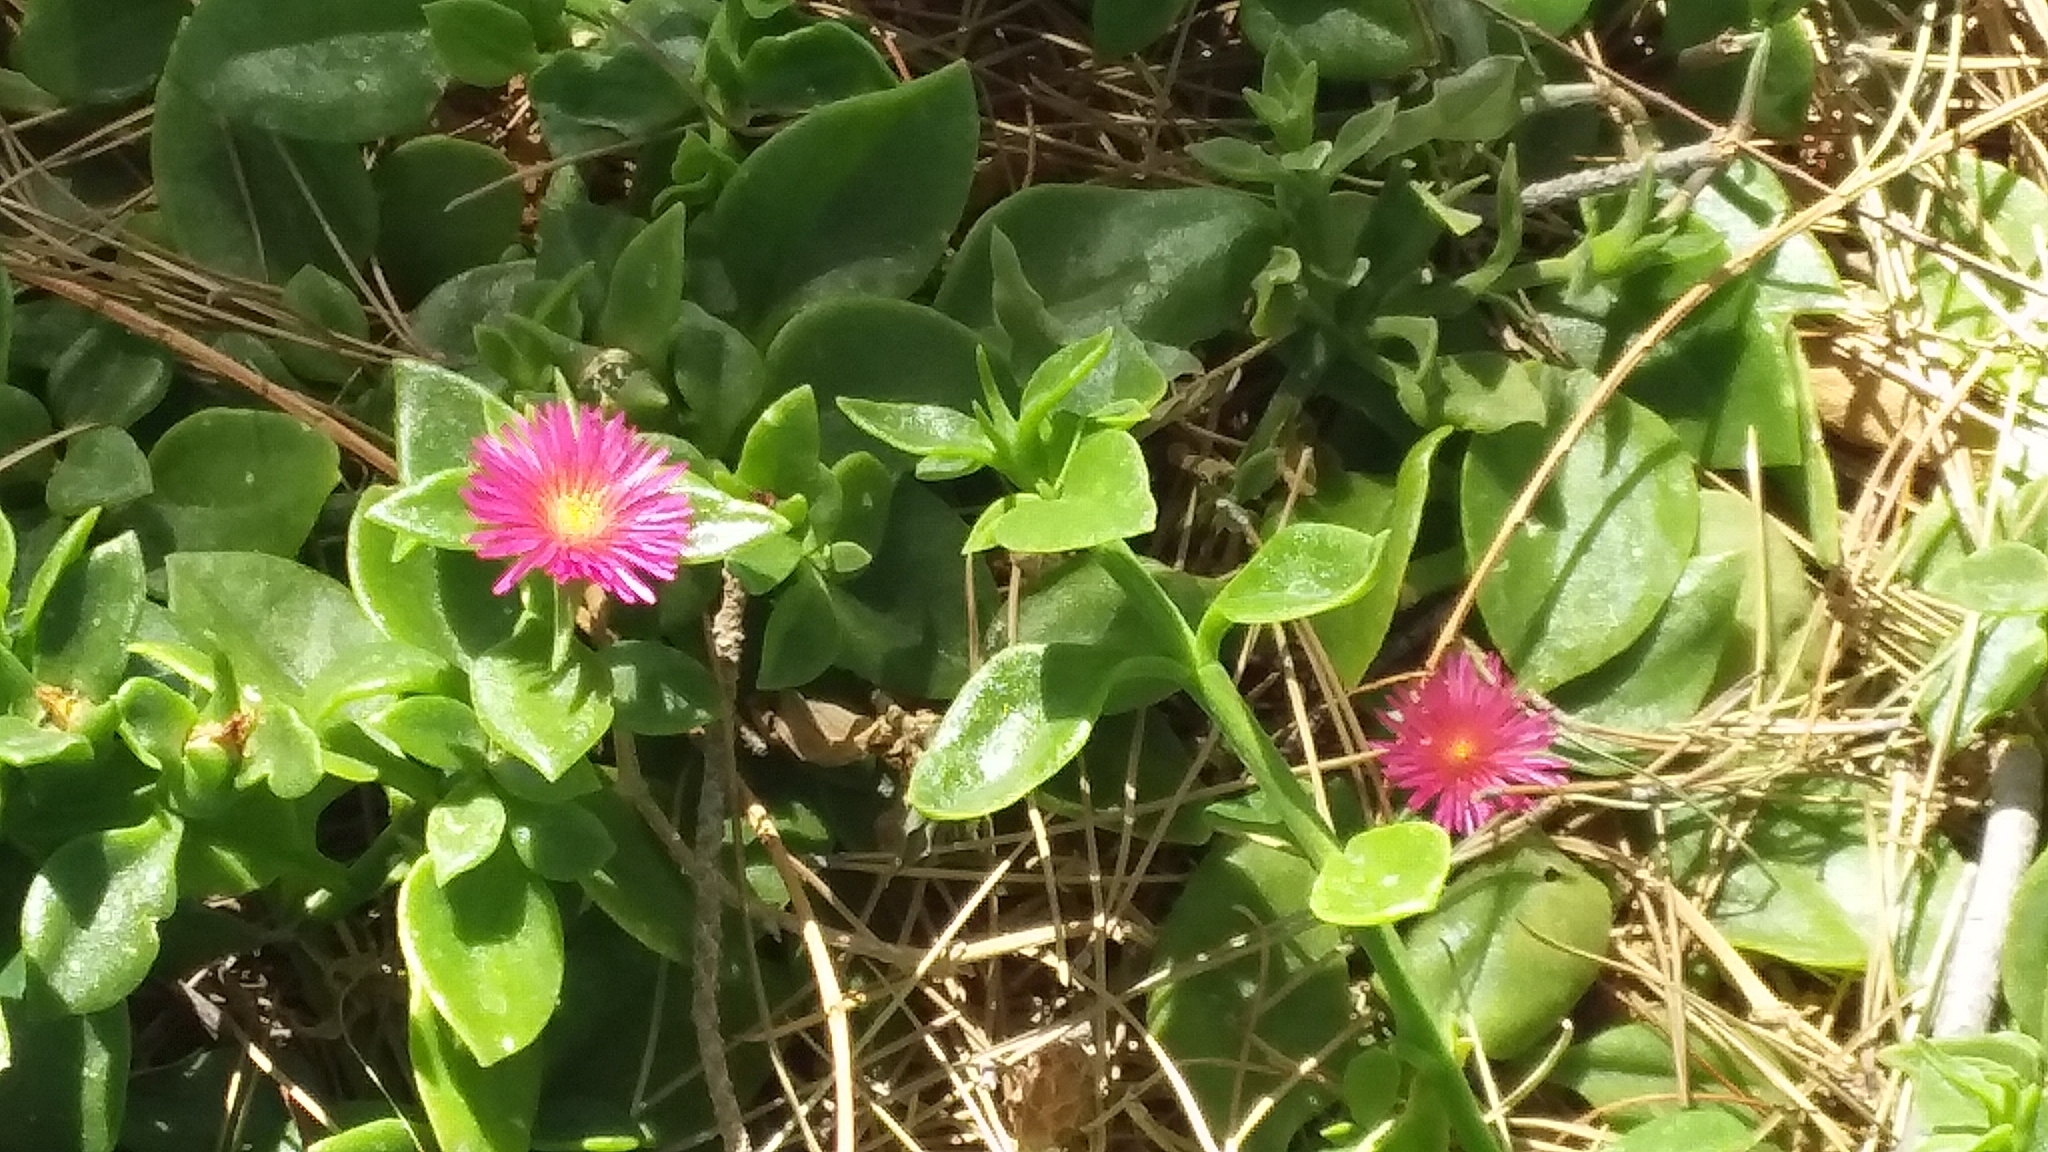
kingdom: Plantae
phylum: Tracheophyta
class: Magnoliopsida
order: Caryophyllales
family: Aizoaceae
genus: Mesembryanthemum
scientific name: Mesembryanthemum cordifolium
